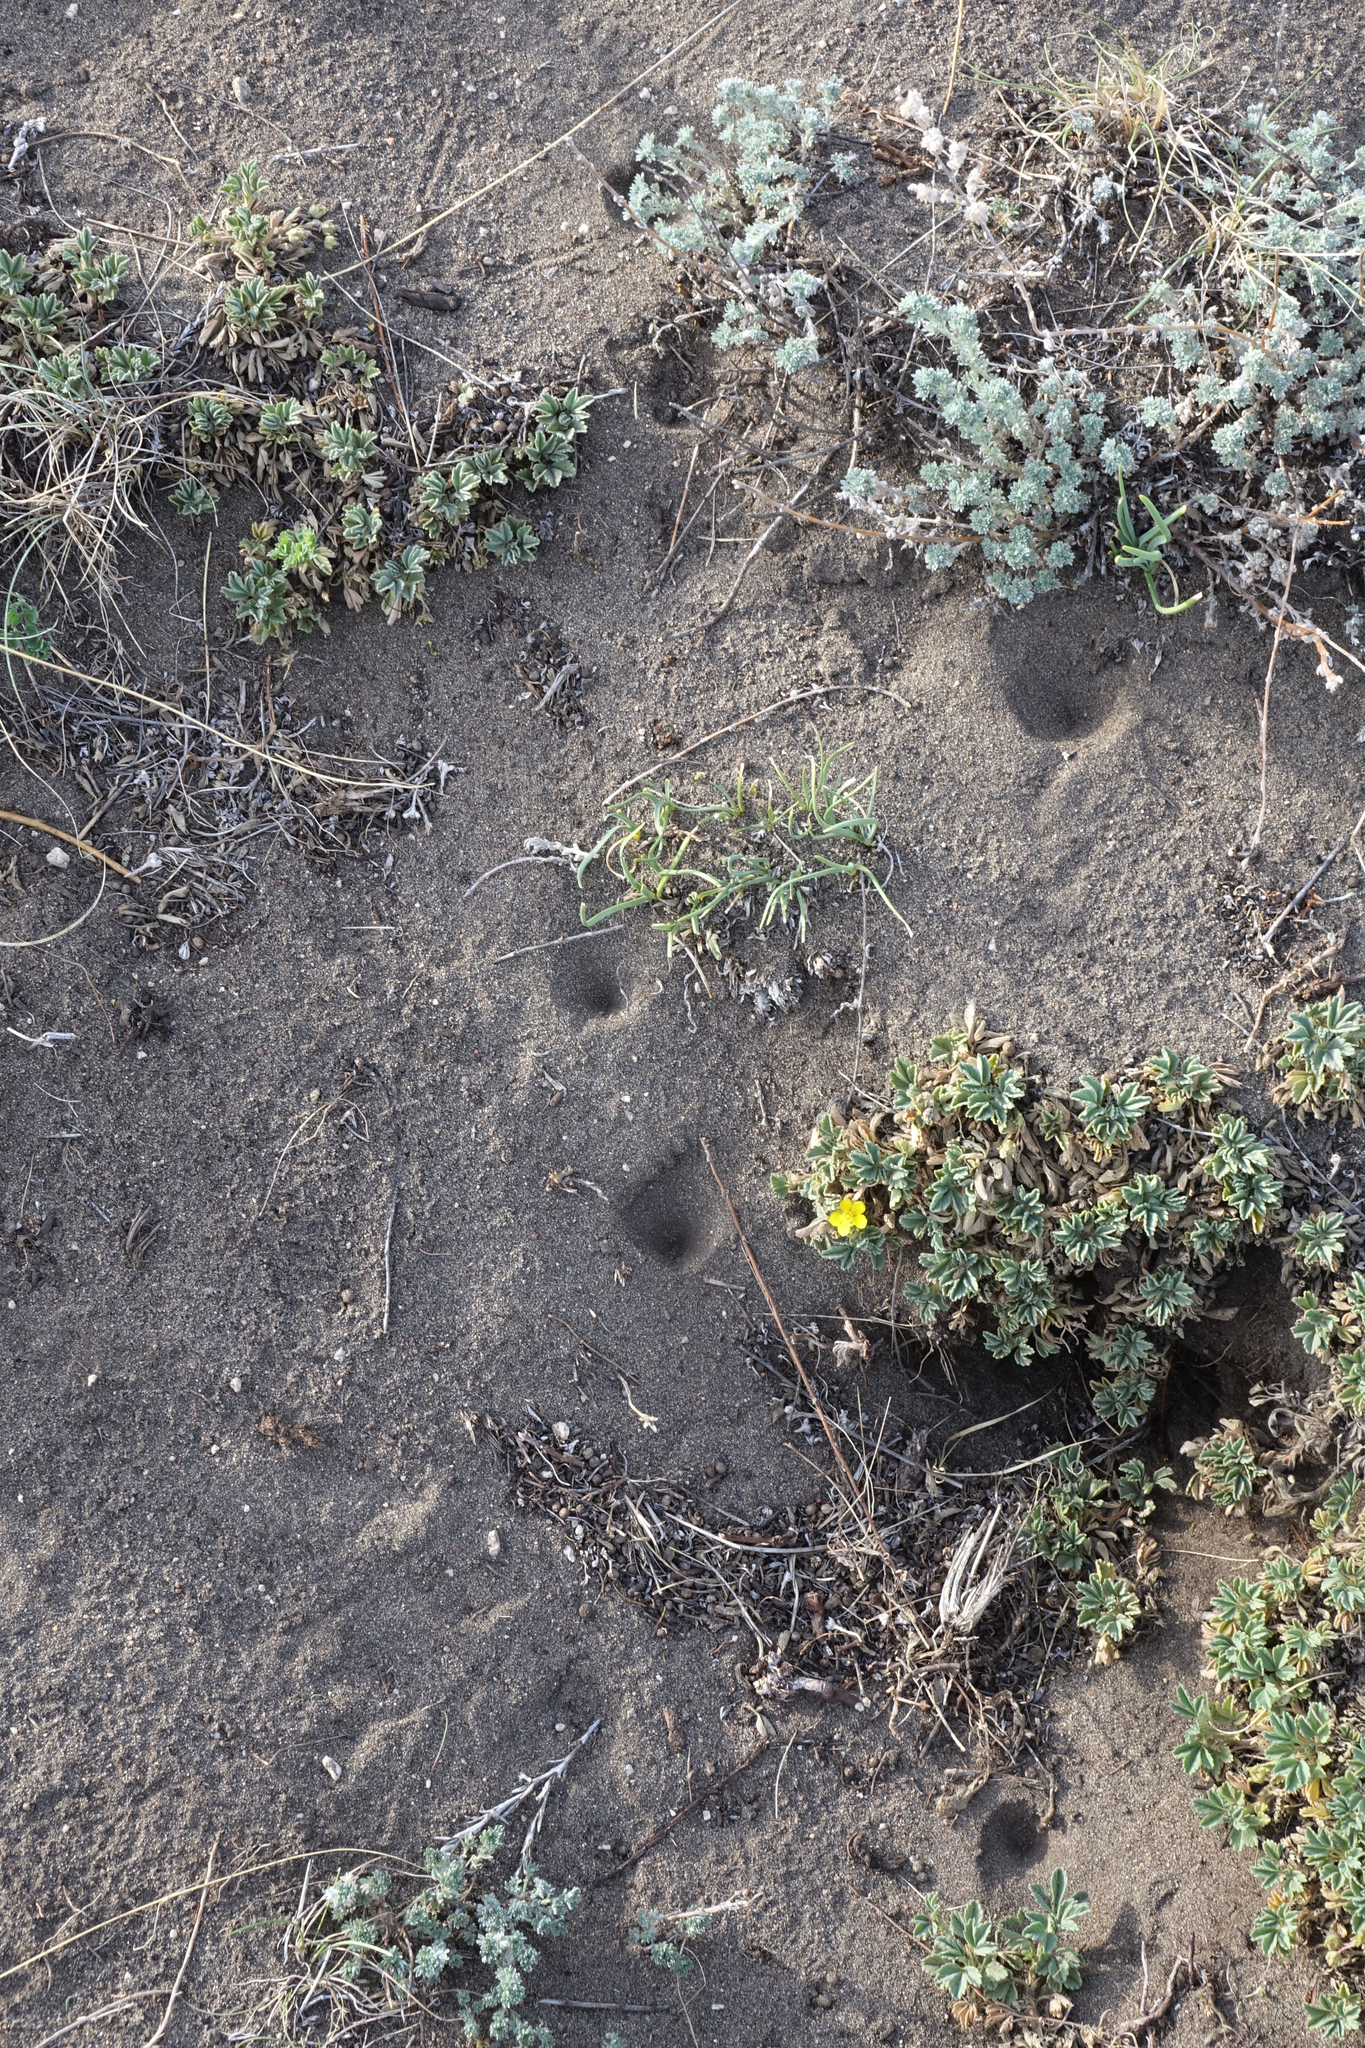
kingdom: Plantae
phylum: Tracheophyta
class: Magnoliopsida
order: Rosales
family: Rosaceae
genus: Potentilla
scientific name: Potentilla acaulis
